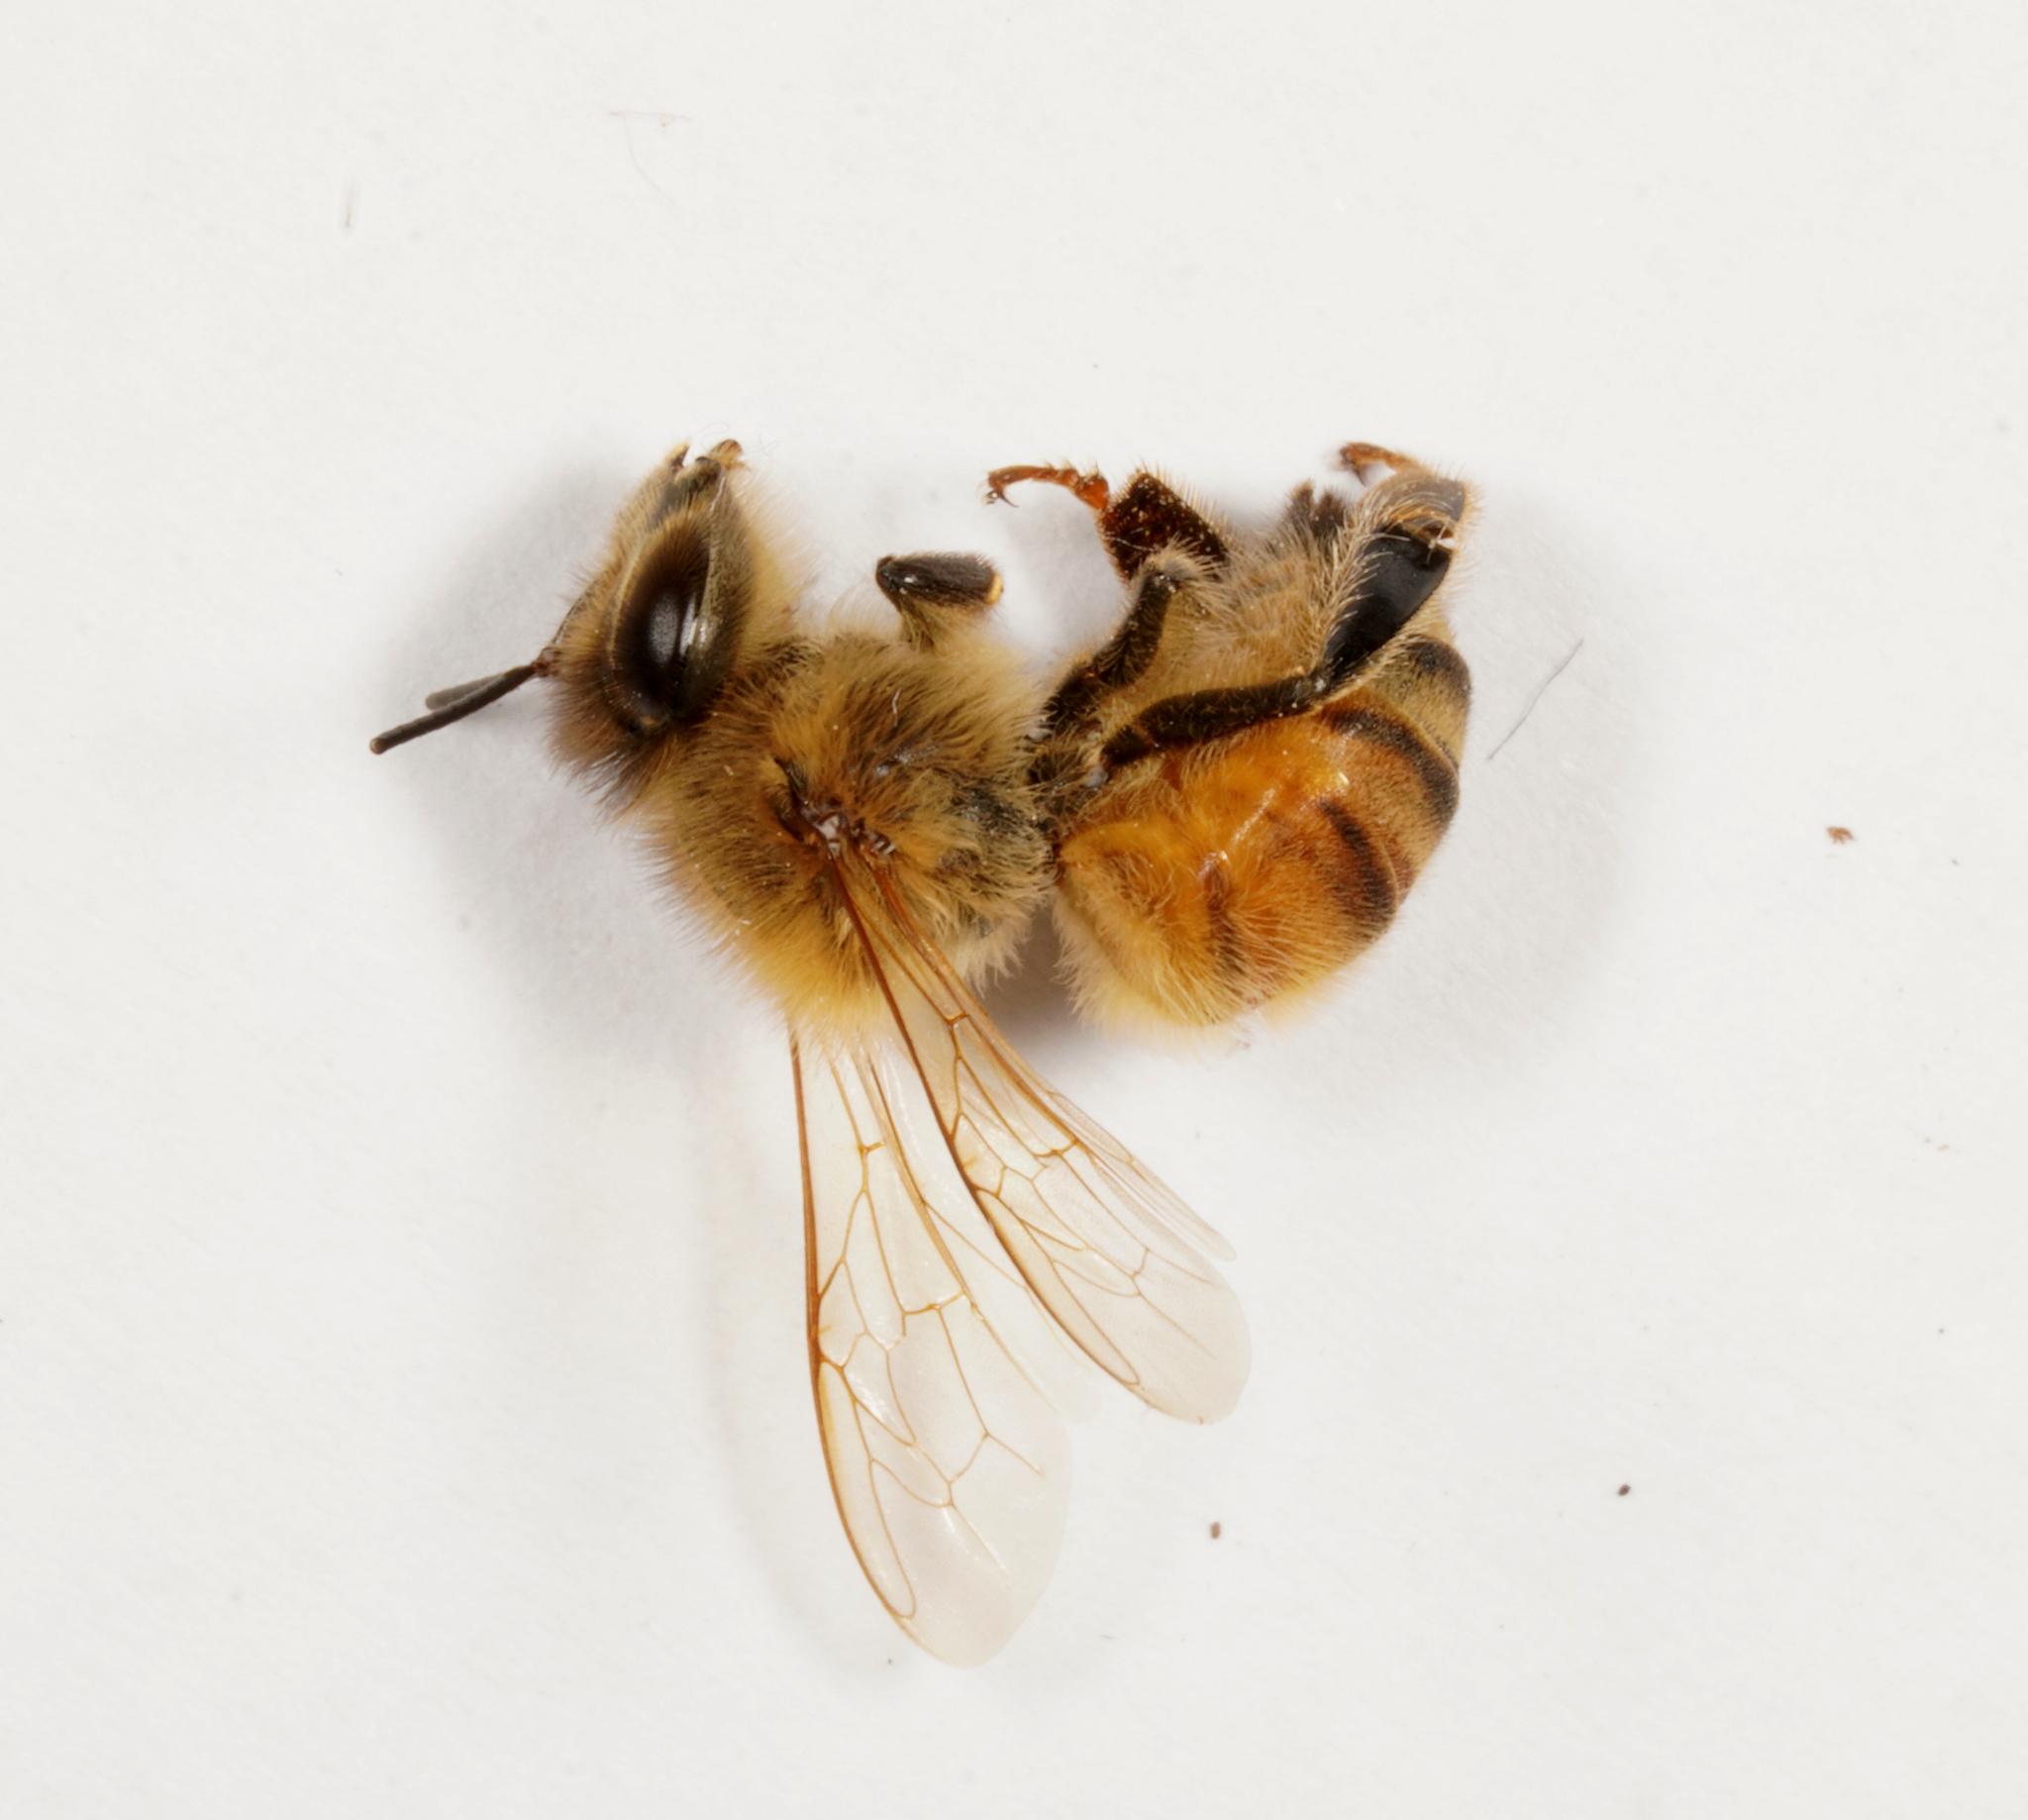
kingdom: Animalia
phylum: Arthropoda
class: Insecta
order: Hymenoptera
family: Apidae
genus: Apis
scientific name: Apis mellifera
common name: Honey bee
